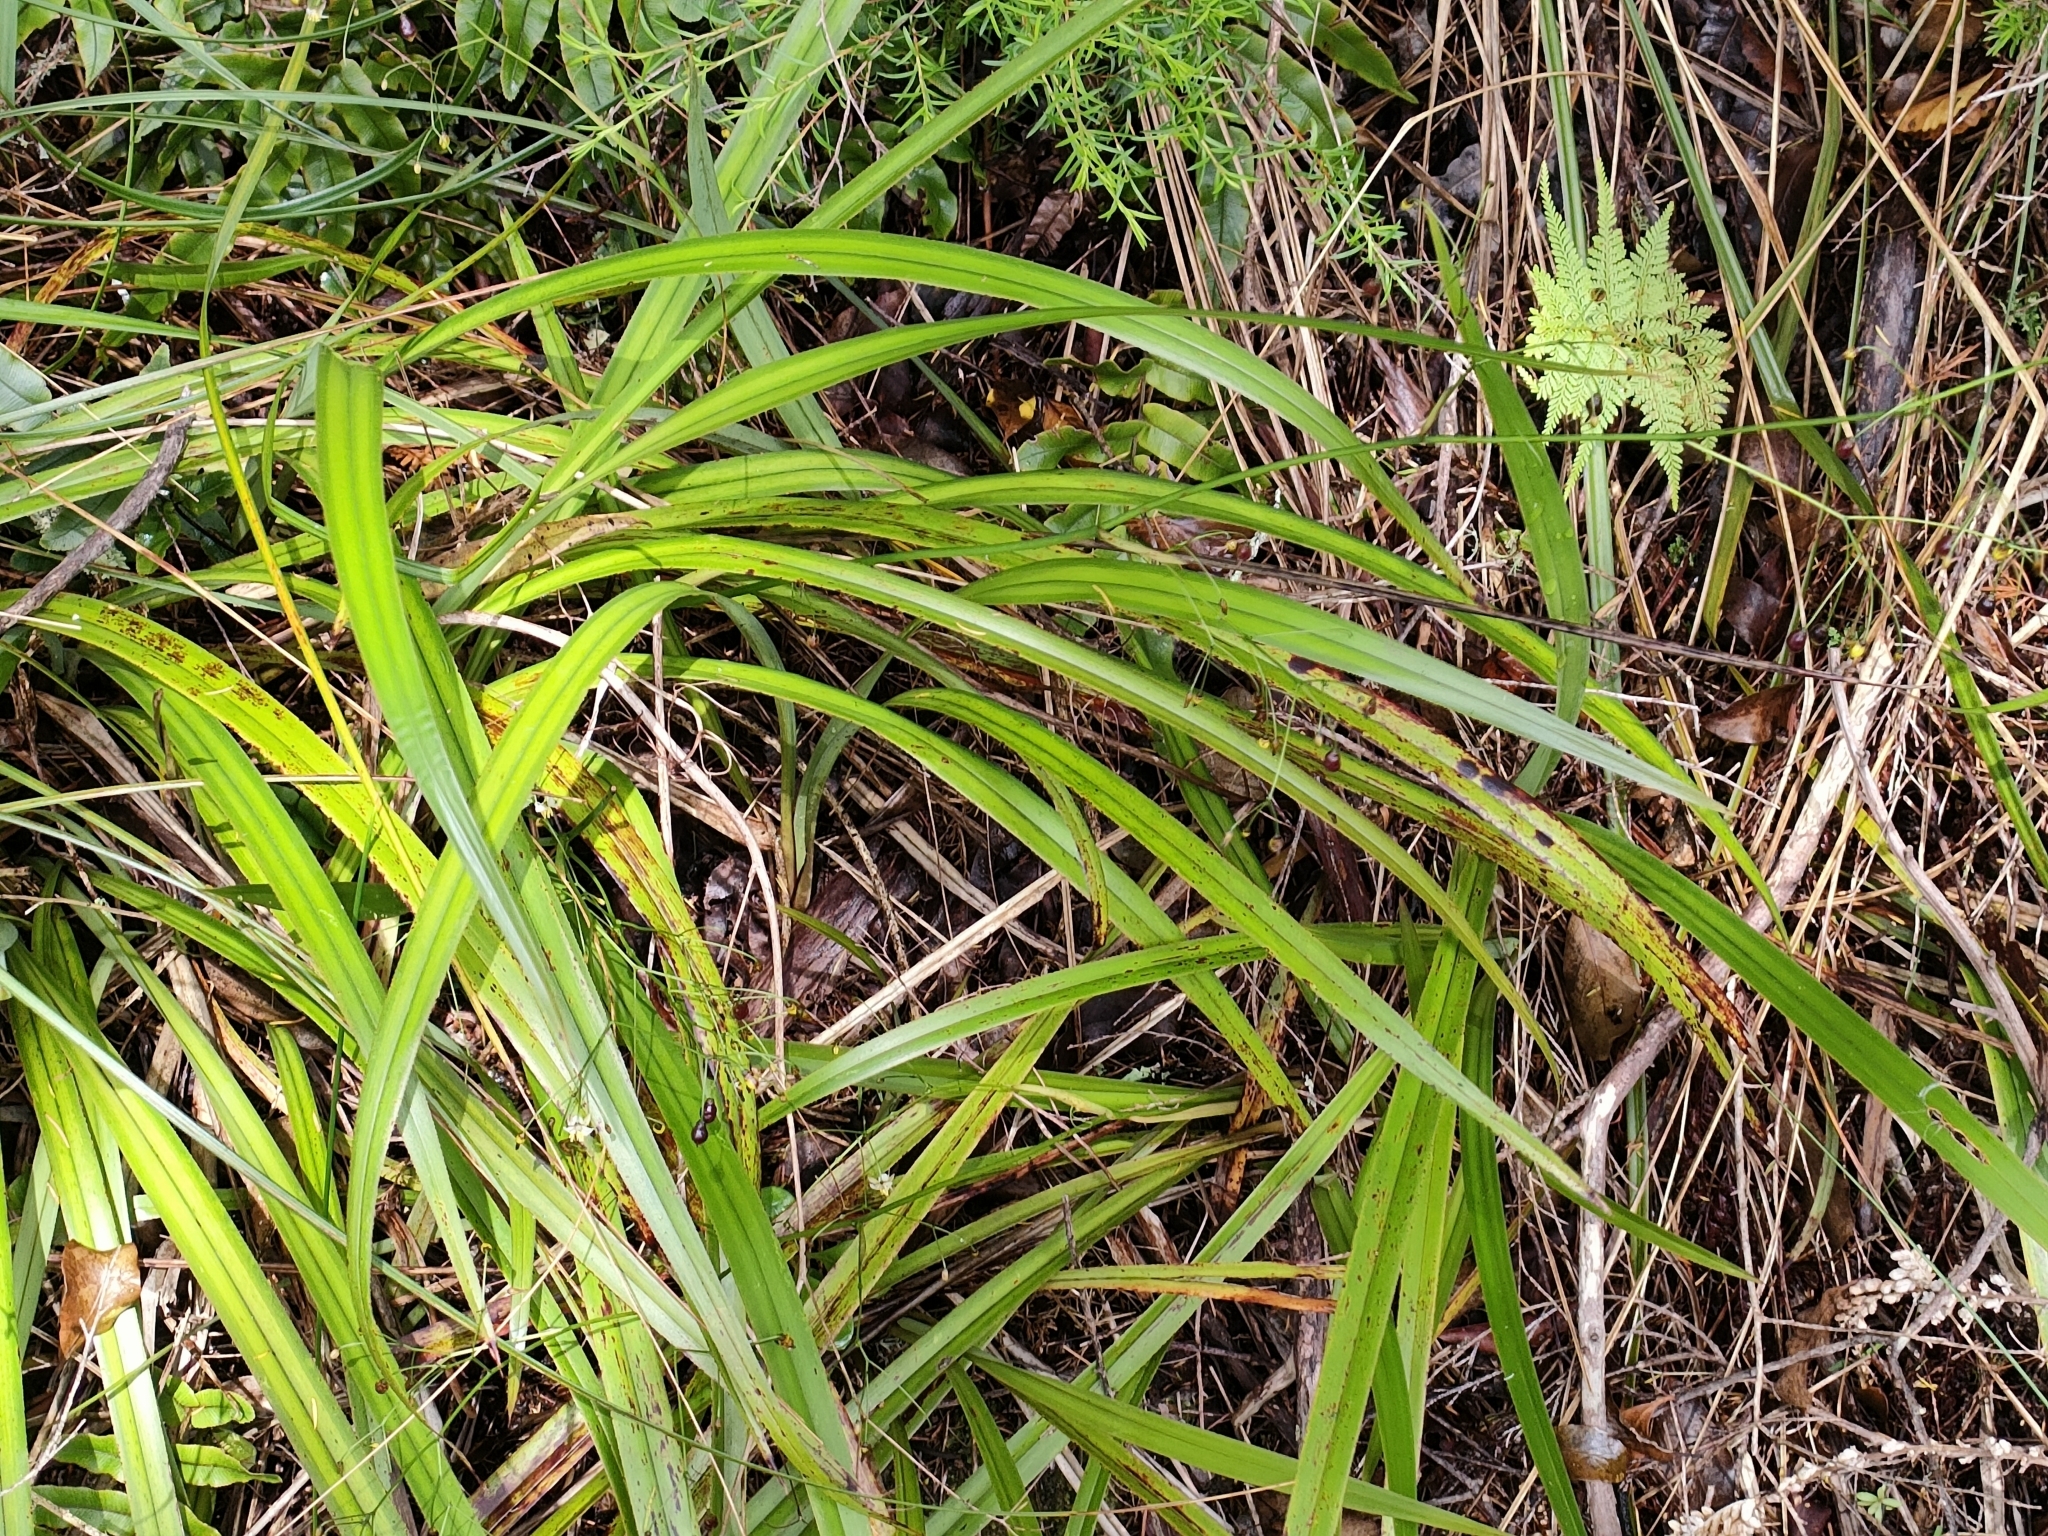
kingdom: Plantae
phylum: Tracheophyta
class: Liliopsida
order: Asparagales
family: Asphodelaceae
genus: Dianella
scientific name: Dianella nigra
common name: New zealand-blueberry
